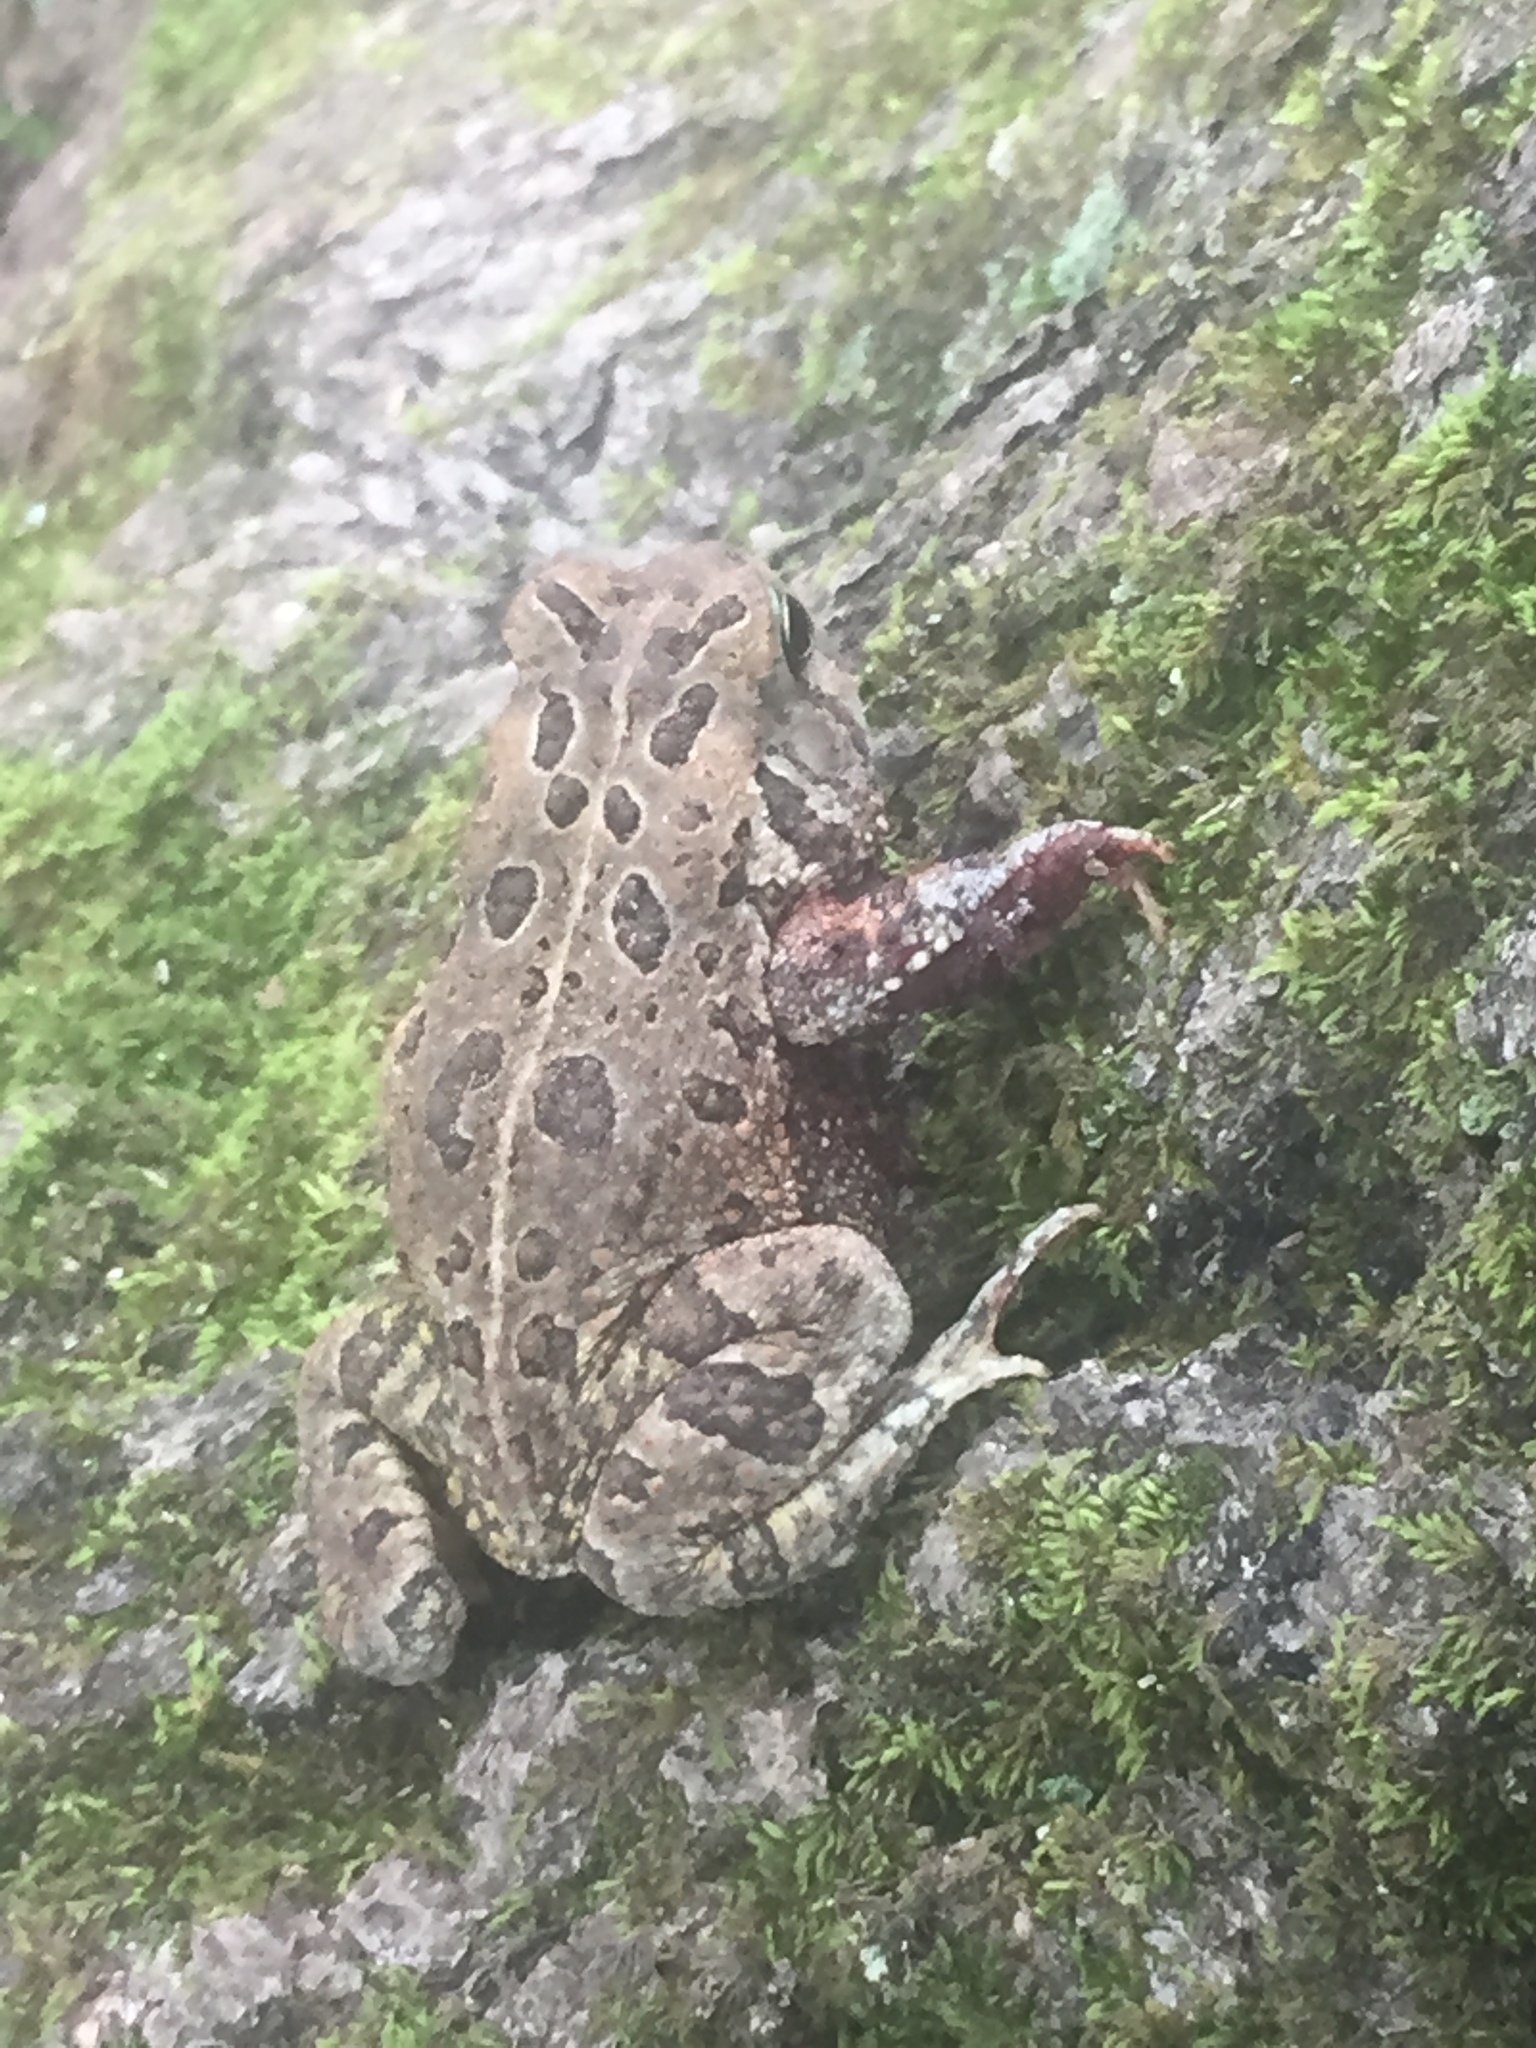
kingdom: Animalia
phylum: Chordata
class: Amphibia
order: Anura
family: Bufonidae
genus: Anaxyrus
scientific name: Anaxyrus fowleri
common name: Fowler's toad
